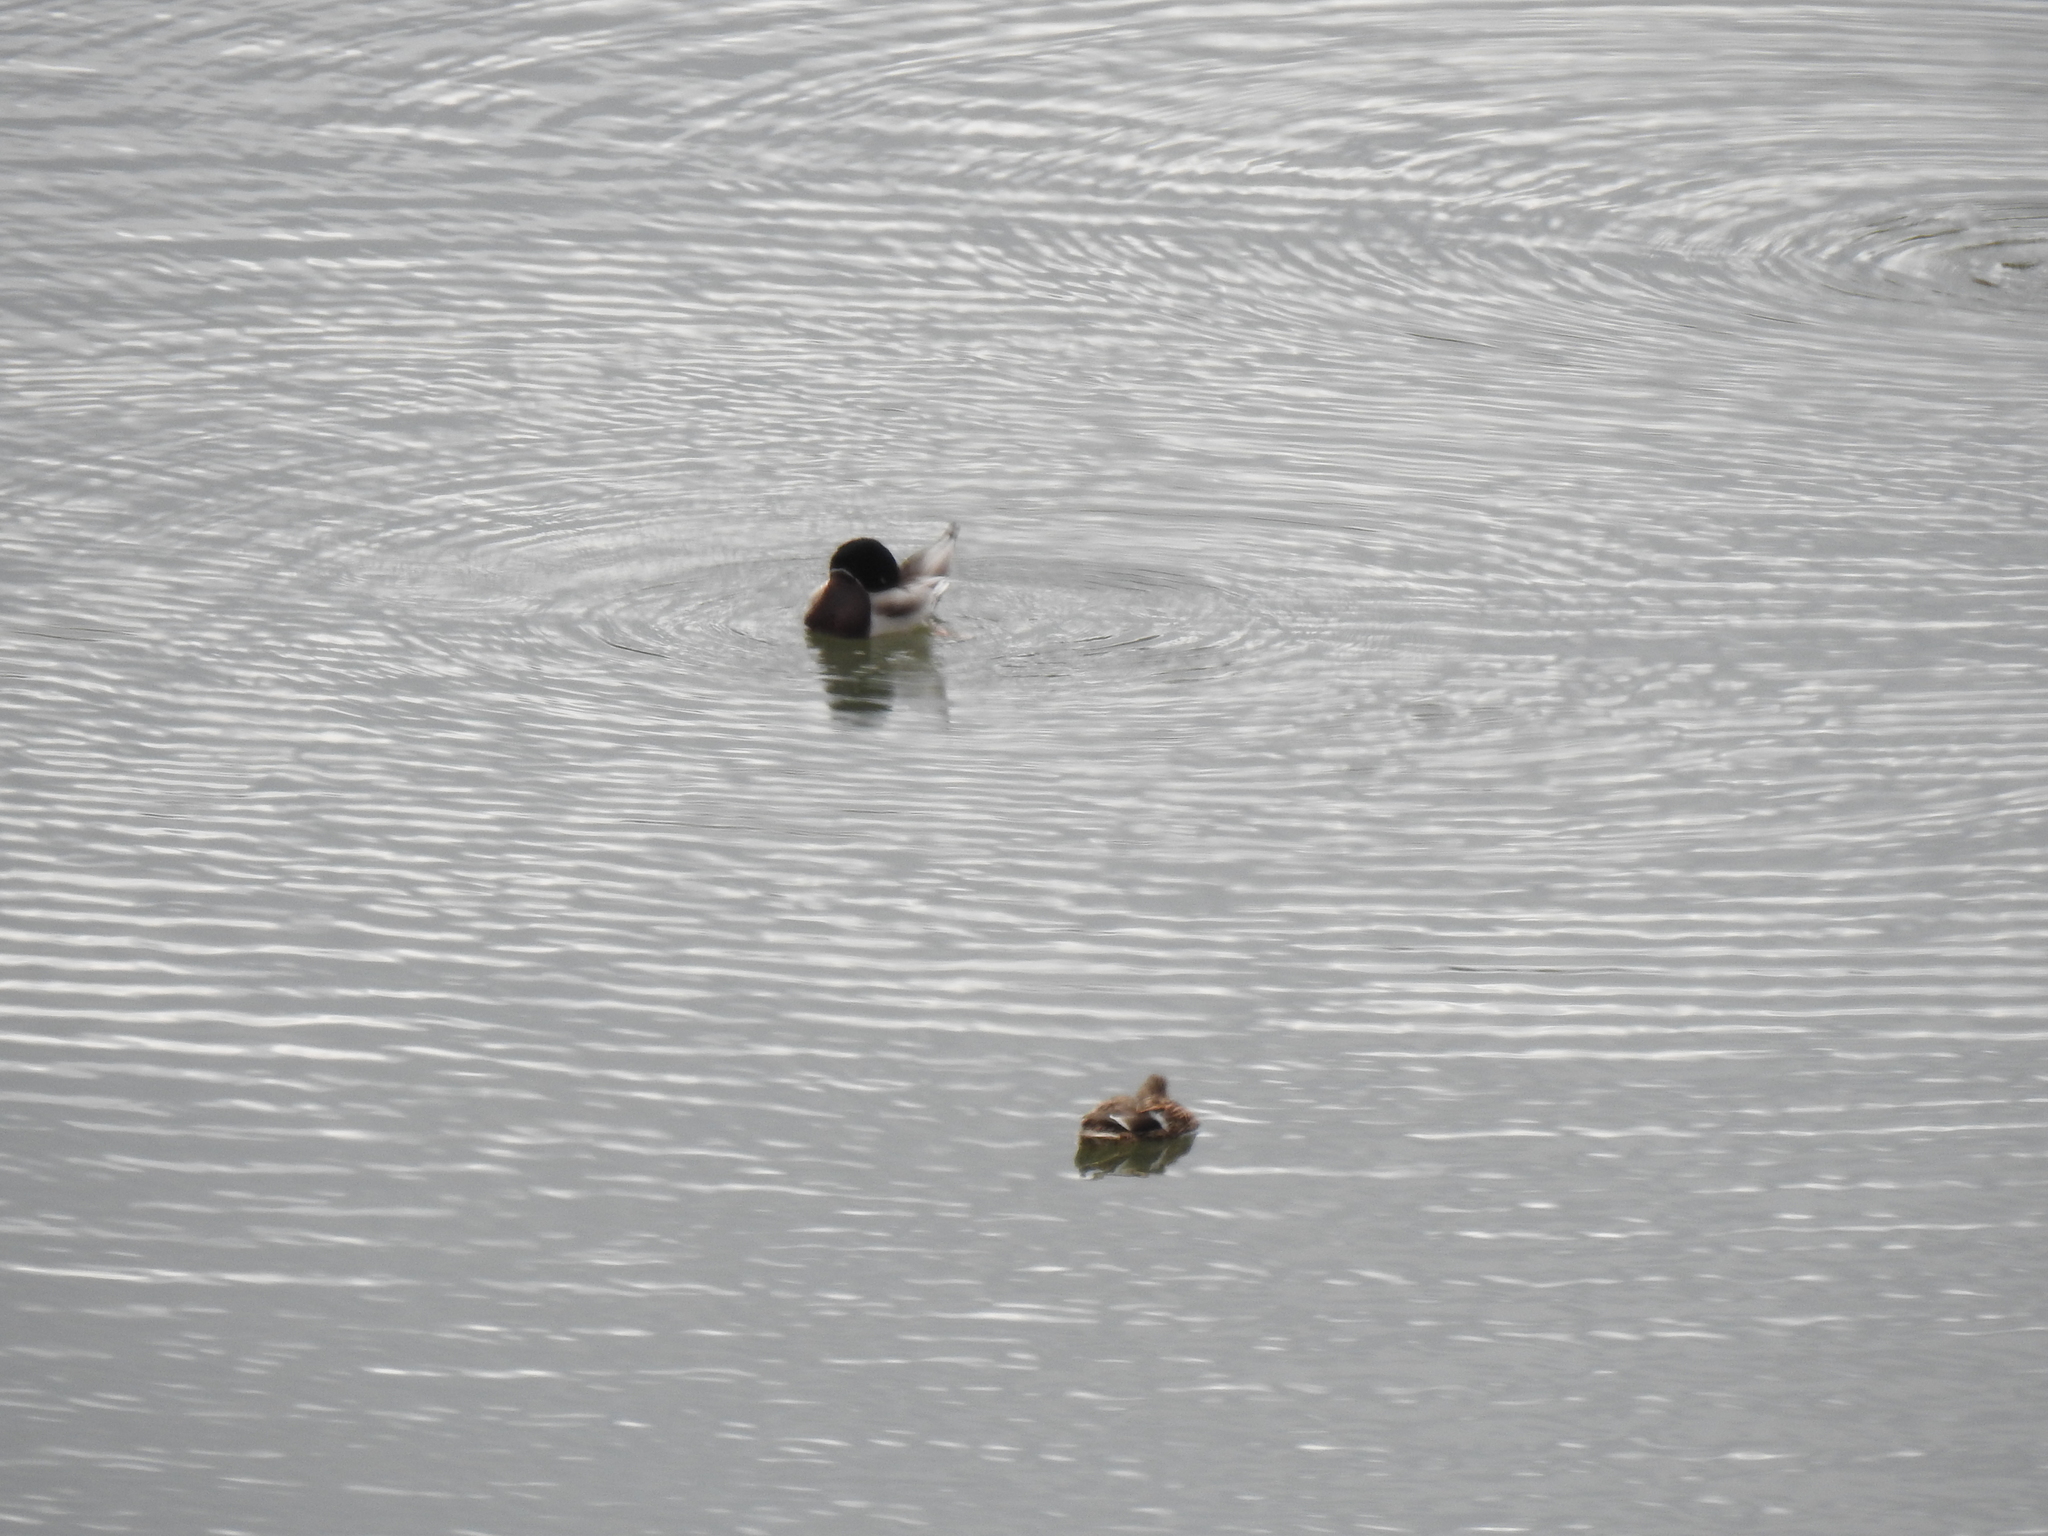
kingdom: Animalia
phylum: Chordata
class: Aves
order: Anseriformes
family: Anatidae
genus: Anas
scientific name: Anas platyrhynchos
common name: Mallard
